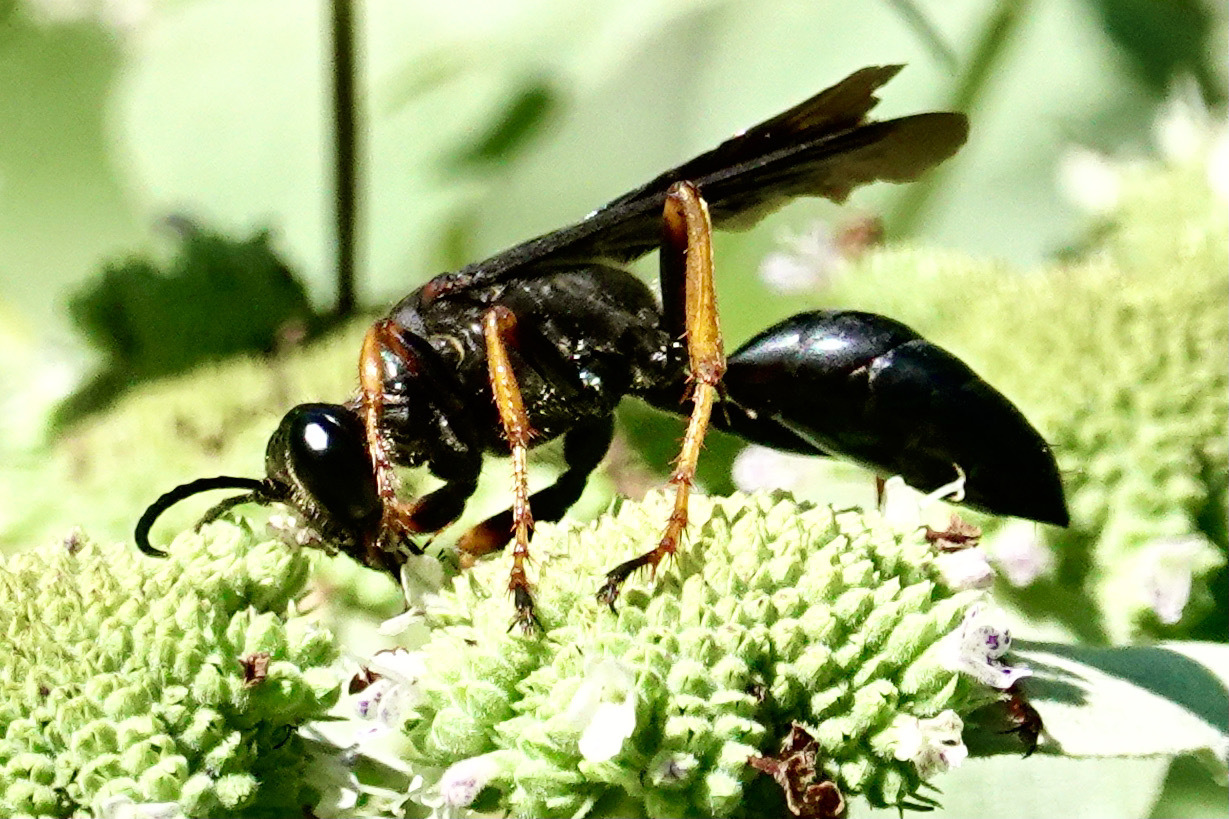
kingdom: Animalia
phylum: Arthropoda
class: Insecta
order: Hymenoptera
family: Sphecidae
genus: Sphex
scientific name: Sphex nudus
